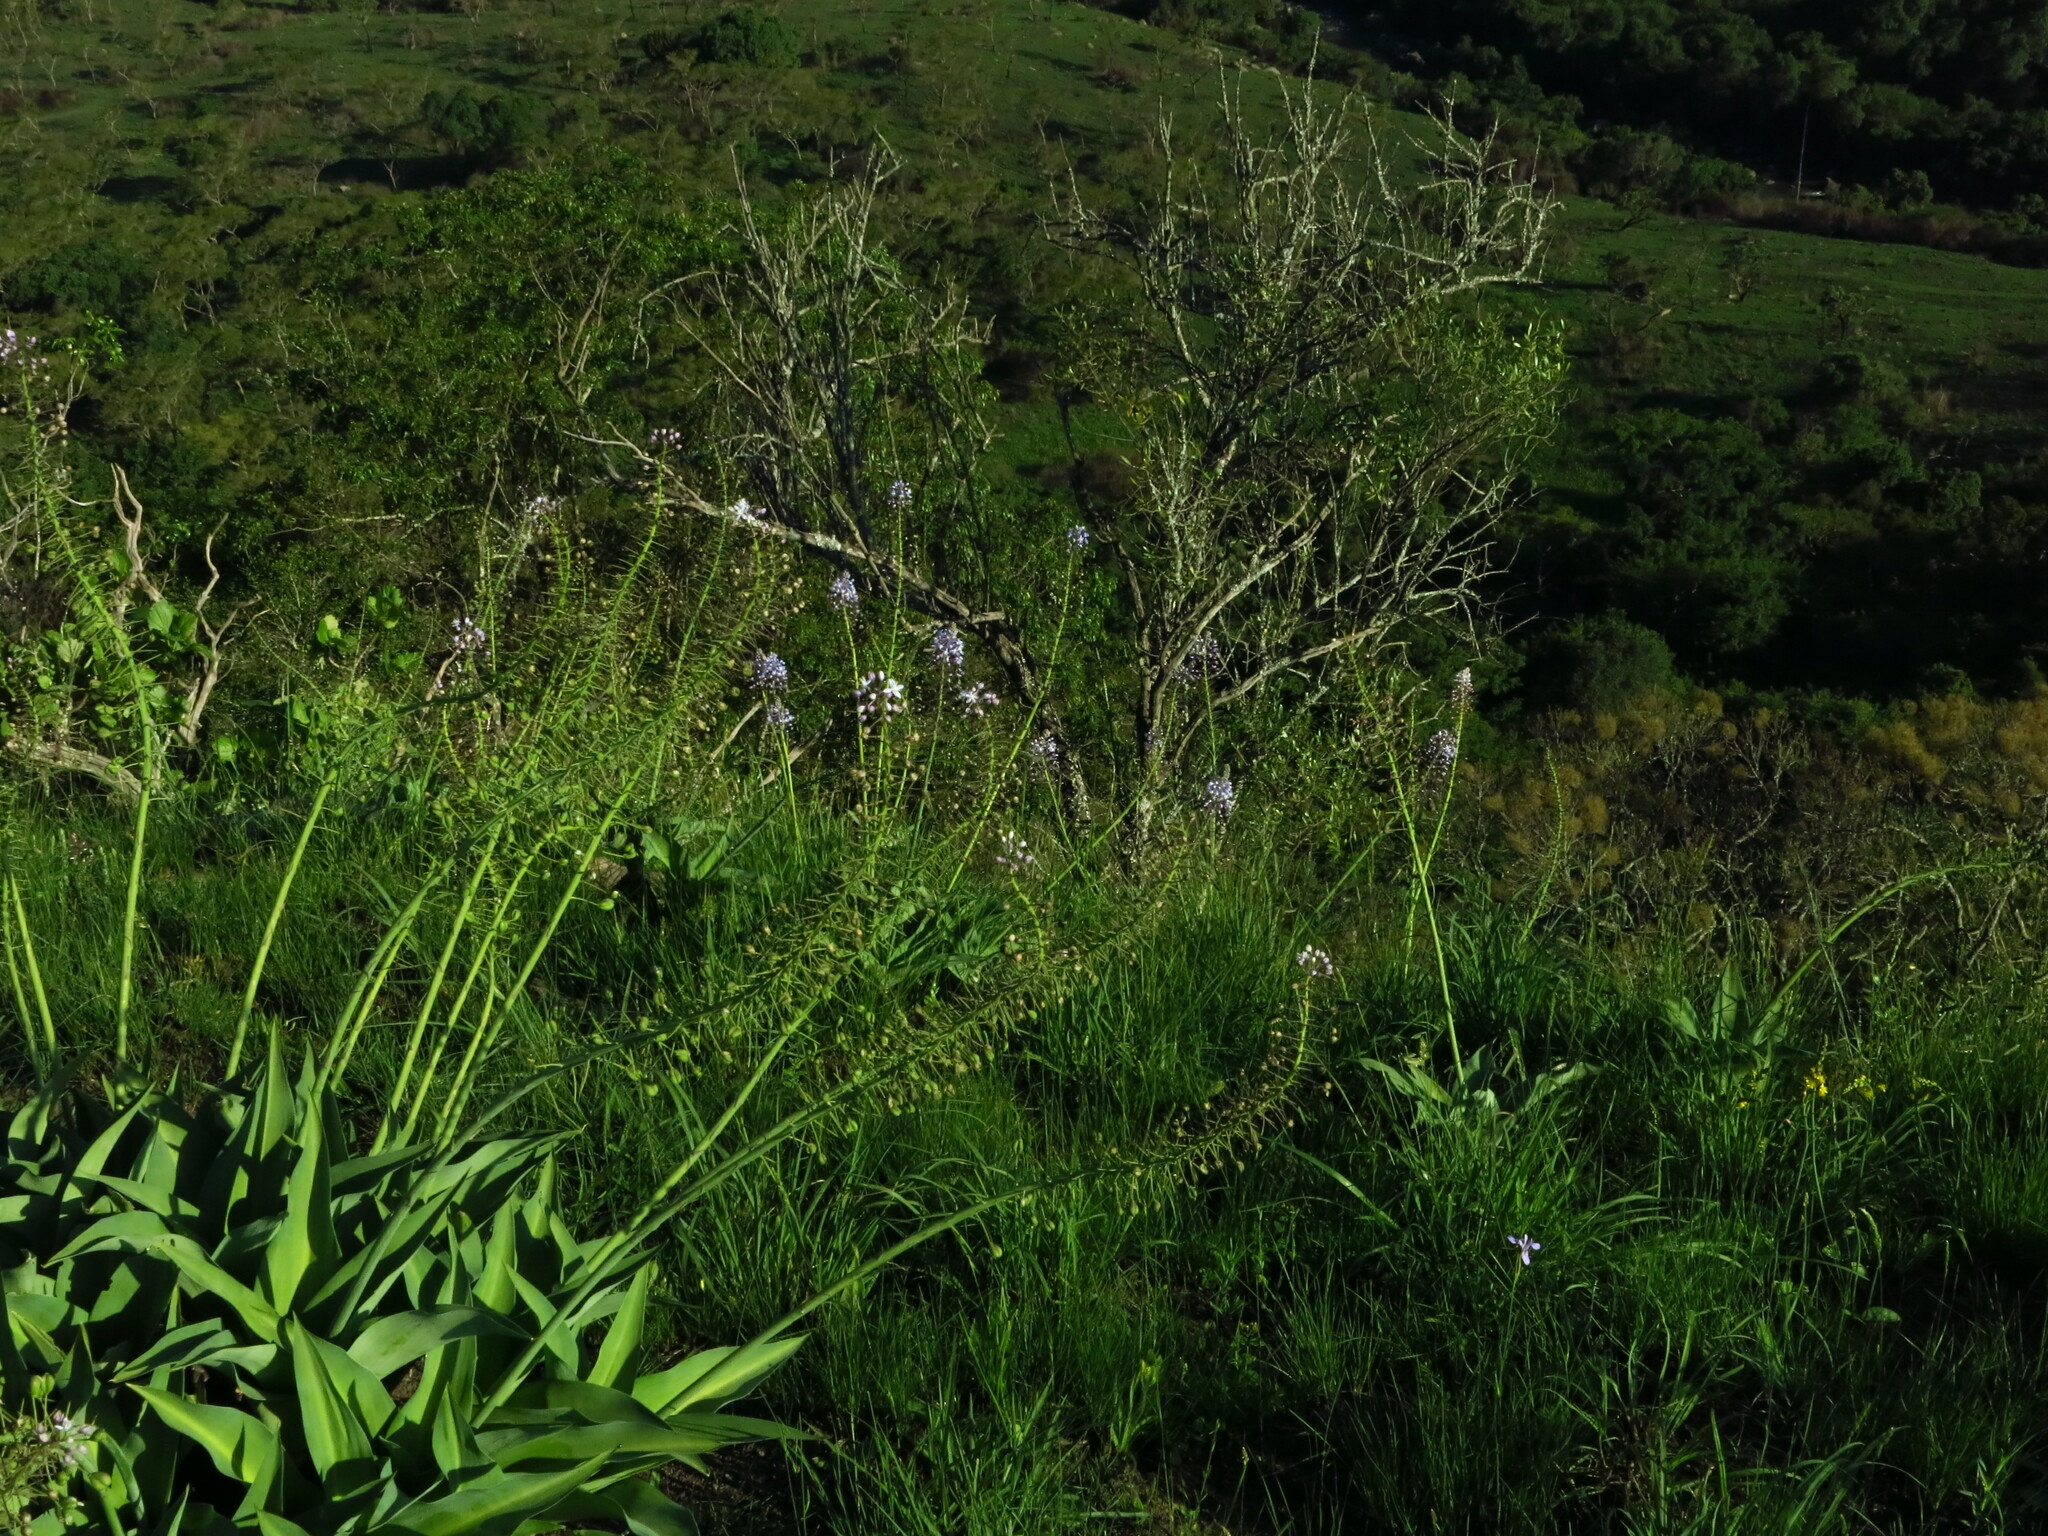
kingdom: Plantae
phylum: Tracheophyta
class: Liliopsida
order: Asparagales
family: Asparagaceae
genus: Merwilla
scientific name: Merwilla plumbea
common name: Blue-squill
